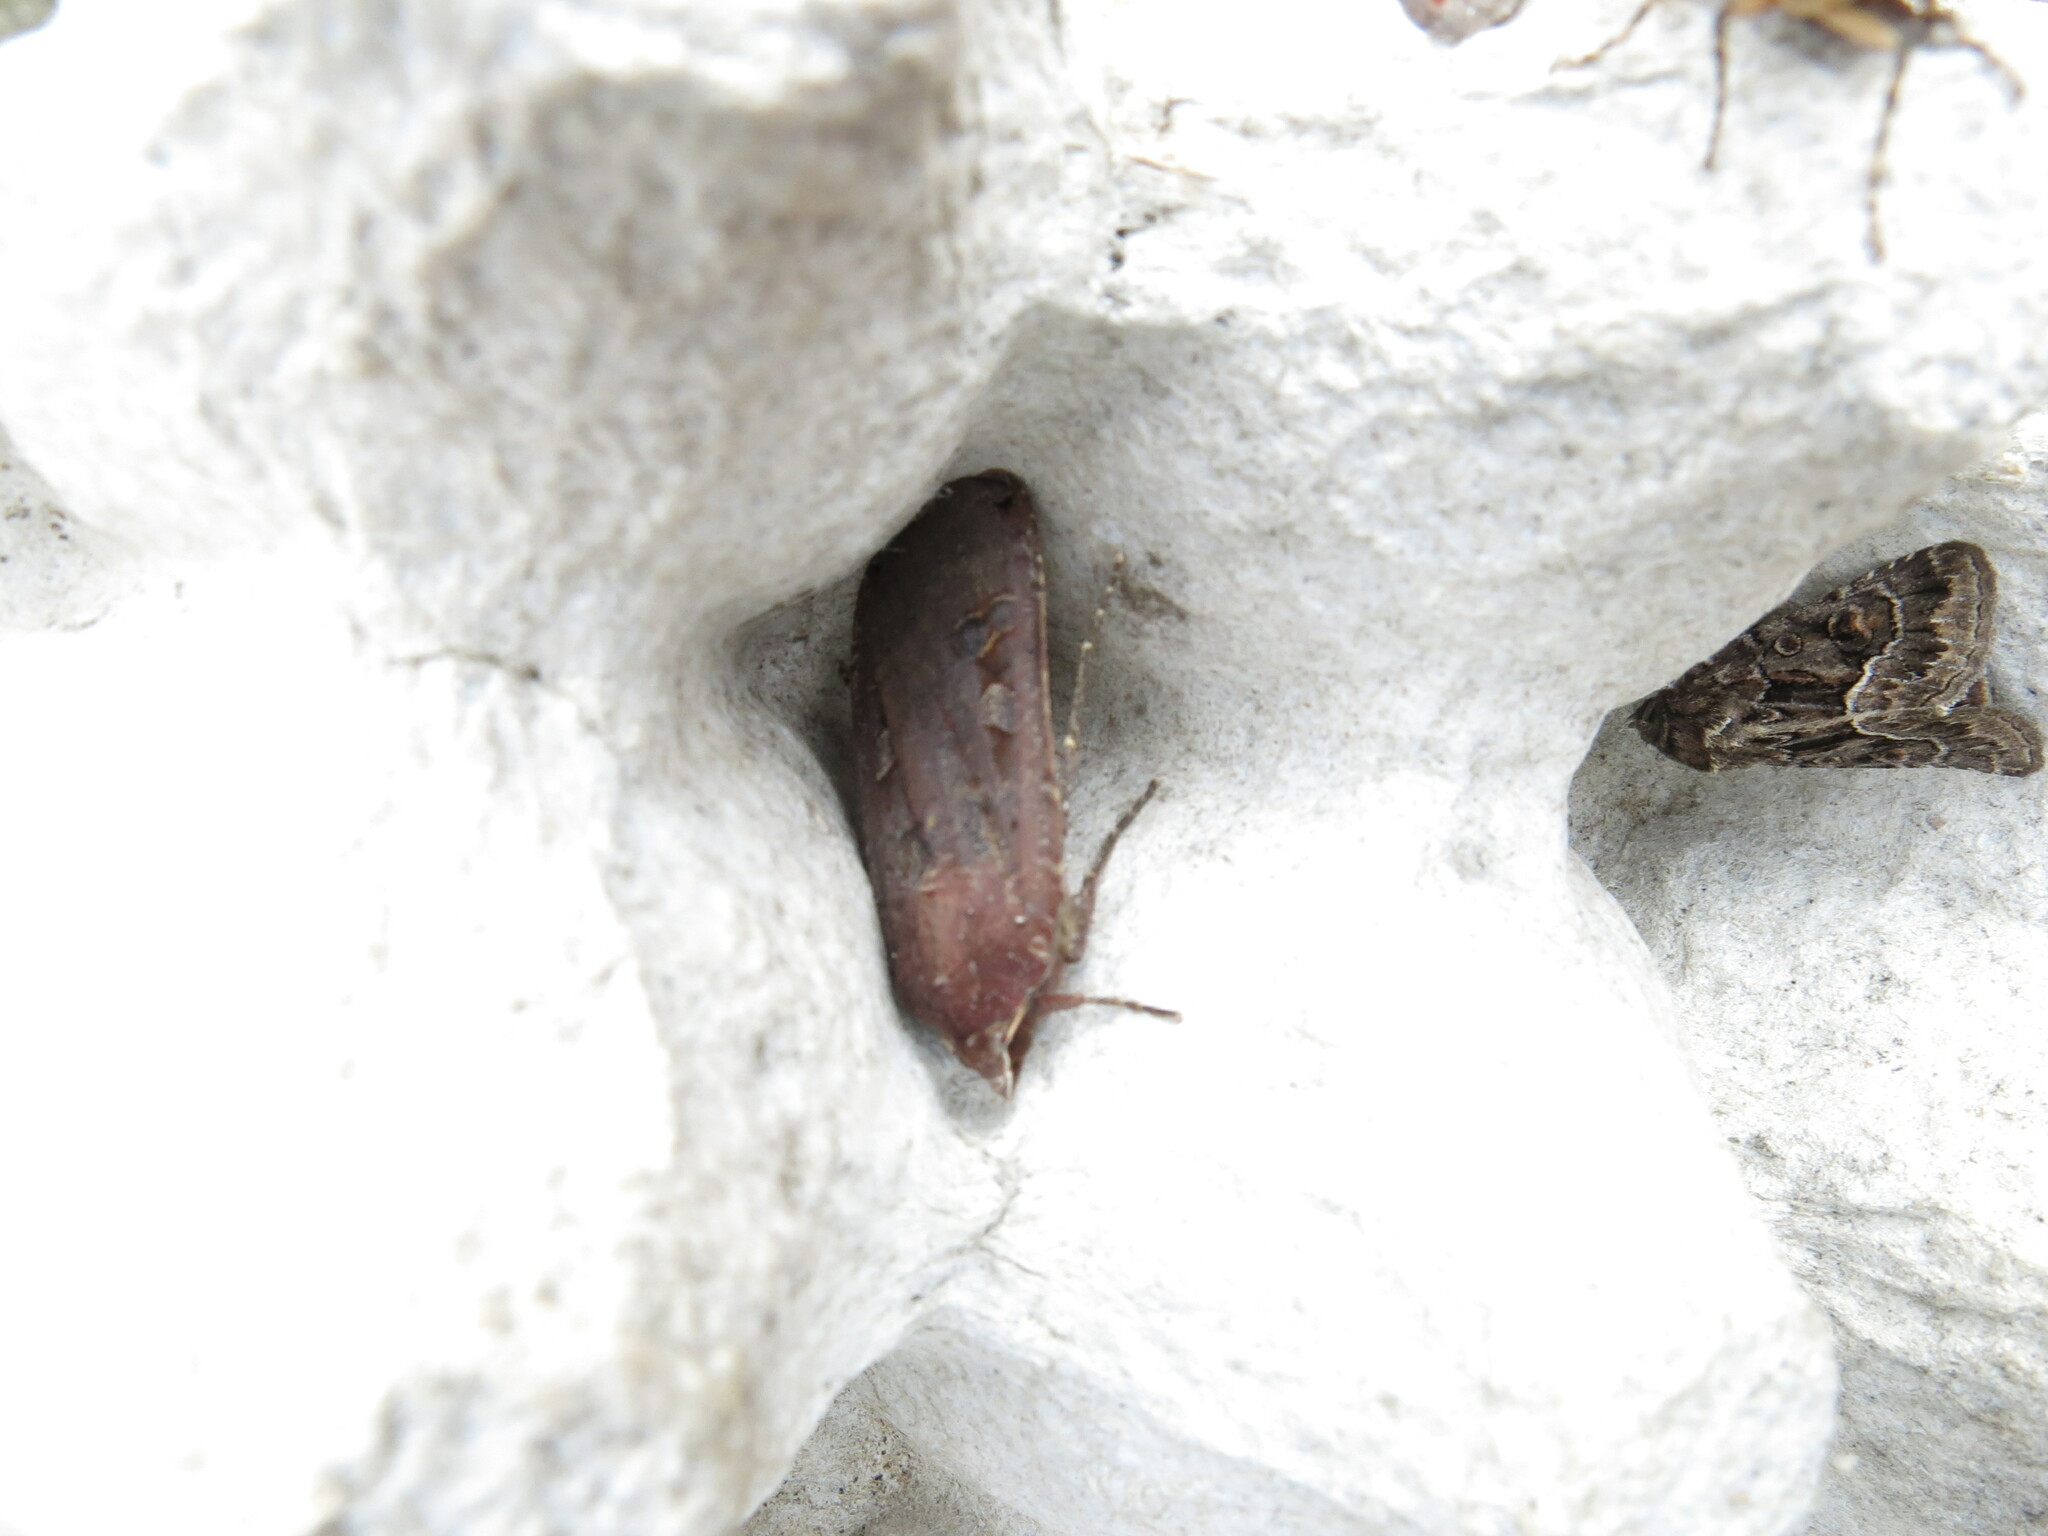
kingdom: Animalia
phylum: Arthropoda
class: Insecta
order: Lepidoptera
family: Noctuidae
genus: Noctua
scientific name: Noctua pronuba
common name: Large yellow underwing
